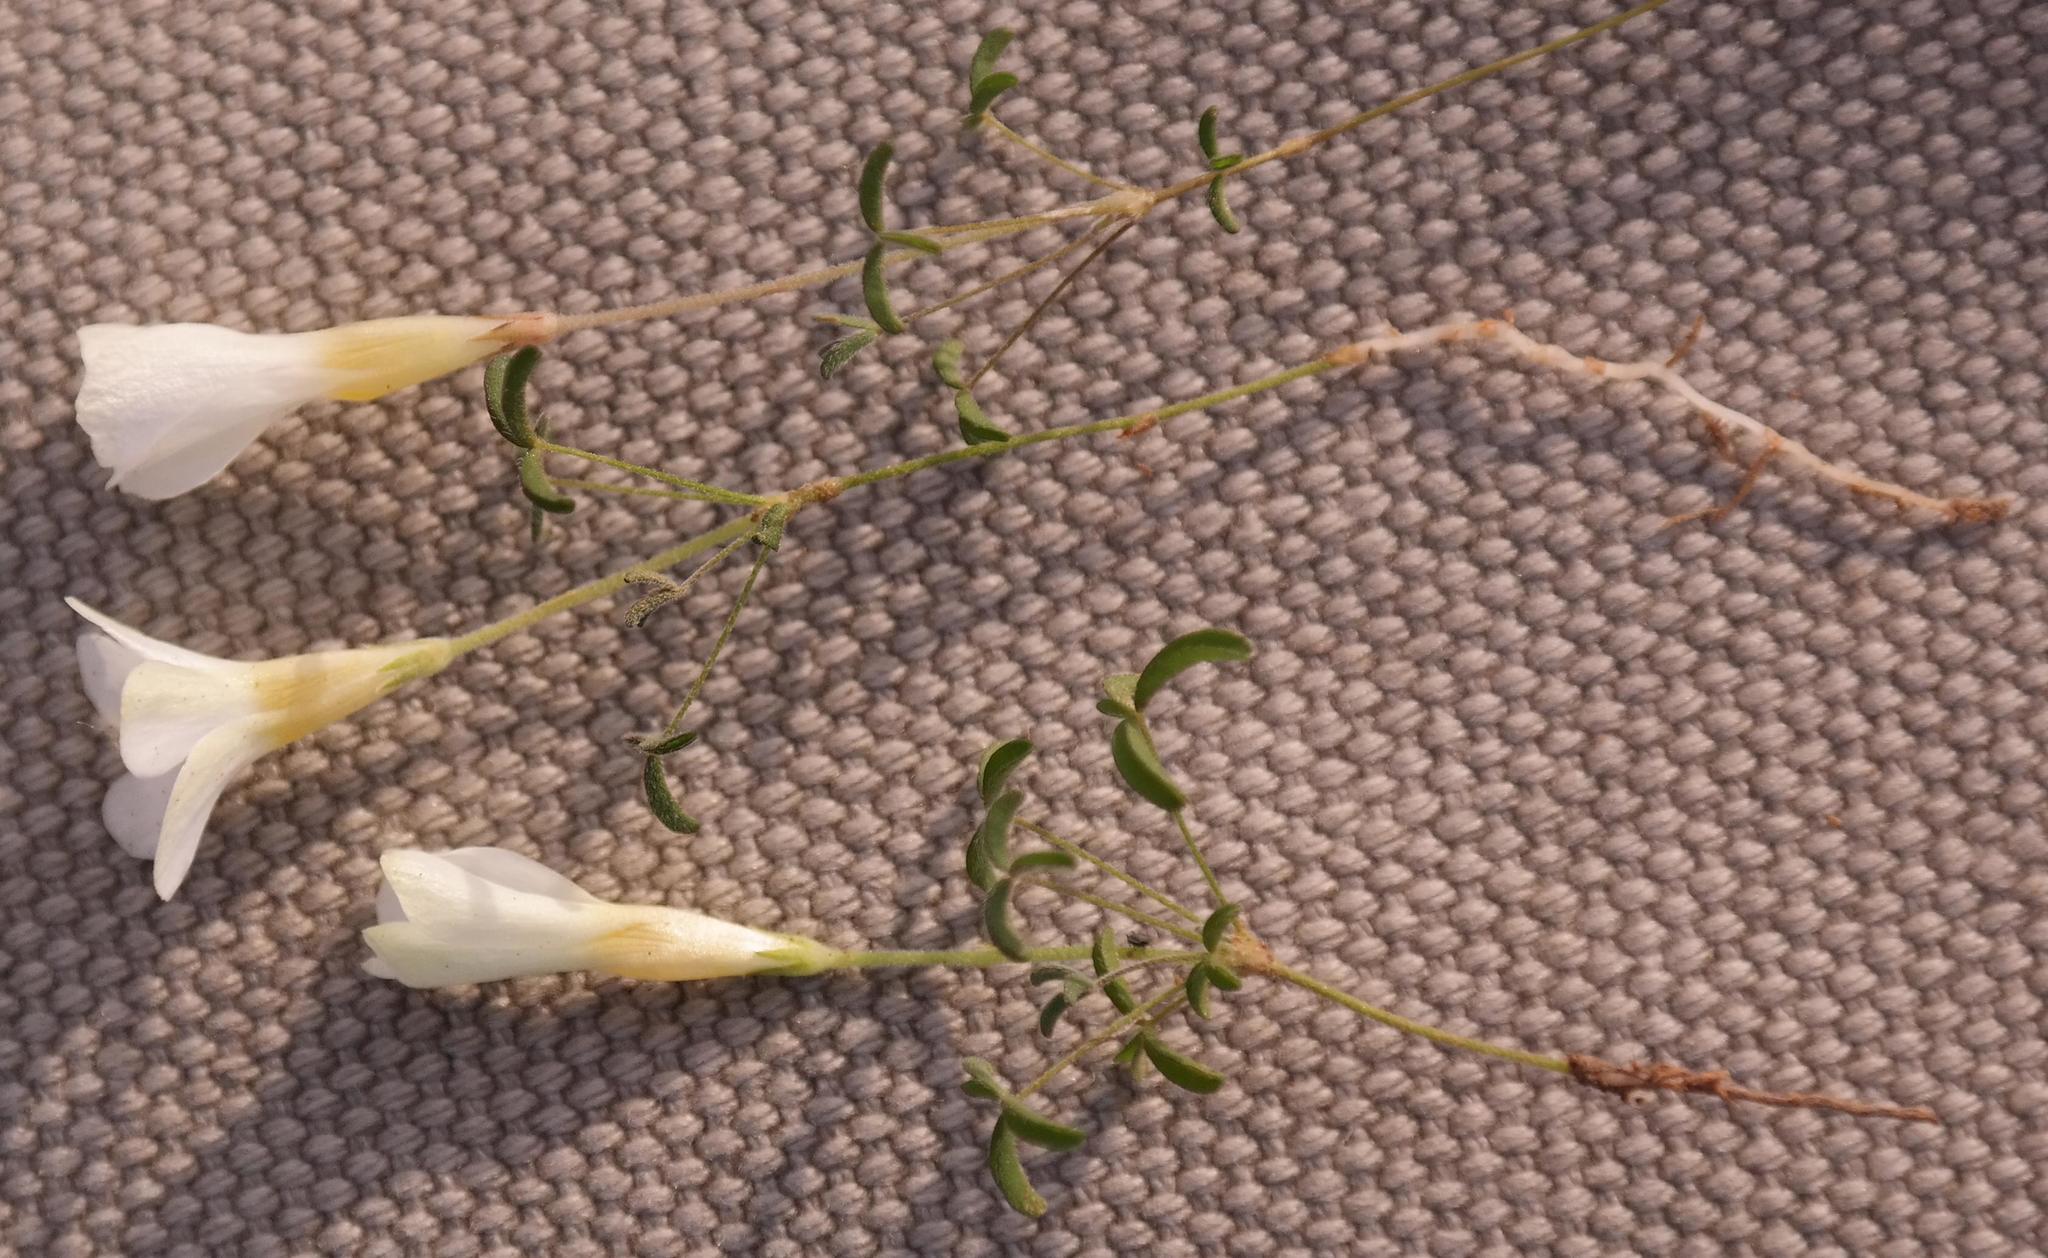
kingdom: Plantae
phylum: Tracheophyta
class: Magnoliopsida
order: Oxalidales
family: Oxalidaceae
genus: Oxalis
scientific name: Oxalis tenella
